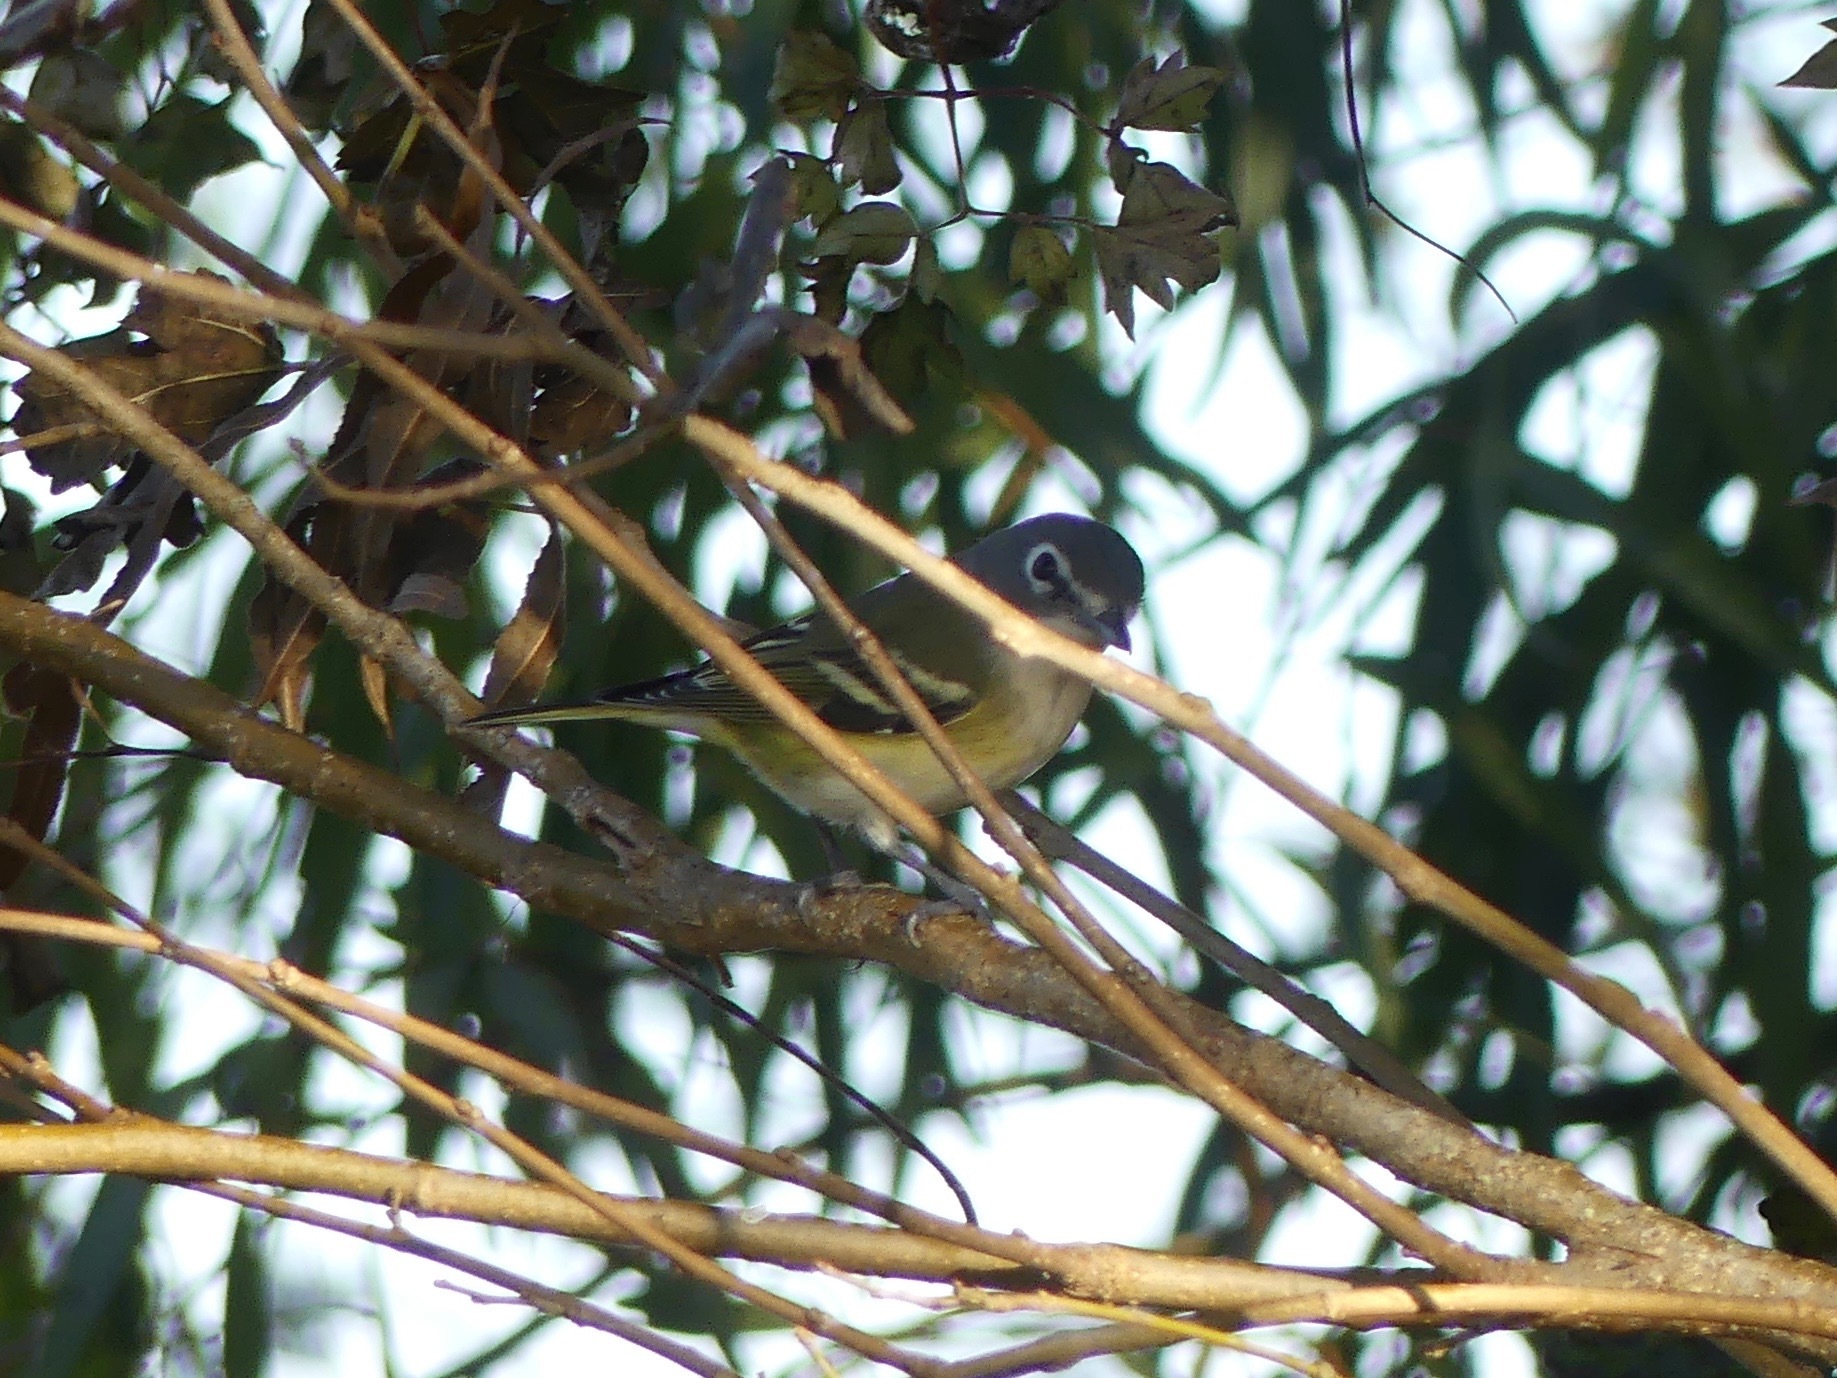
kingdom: Animalia
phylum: Chordata
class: Aves
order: Passeriformes
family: Vireonidae
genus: Vireo
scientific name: Vireo solitarius
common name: Blue-headed vireo
